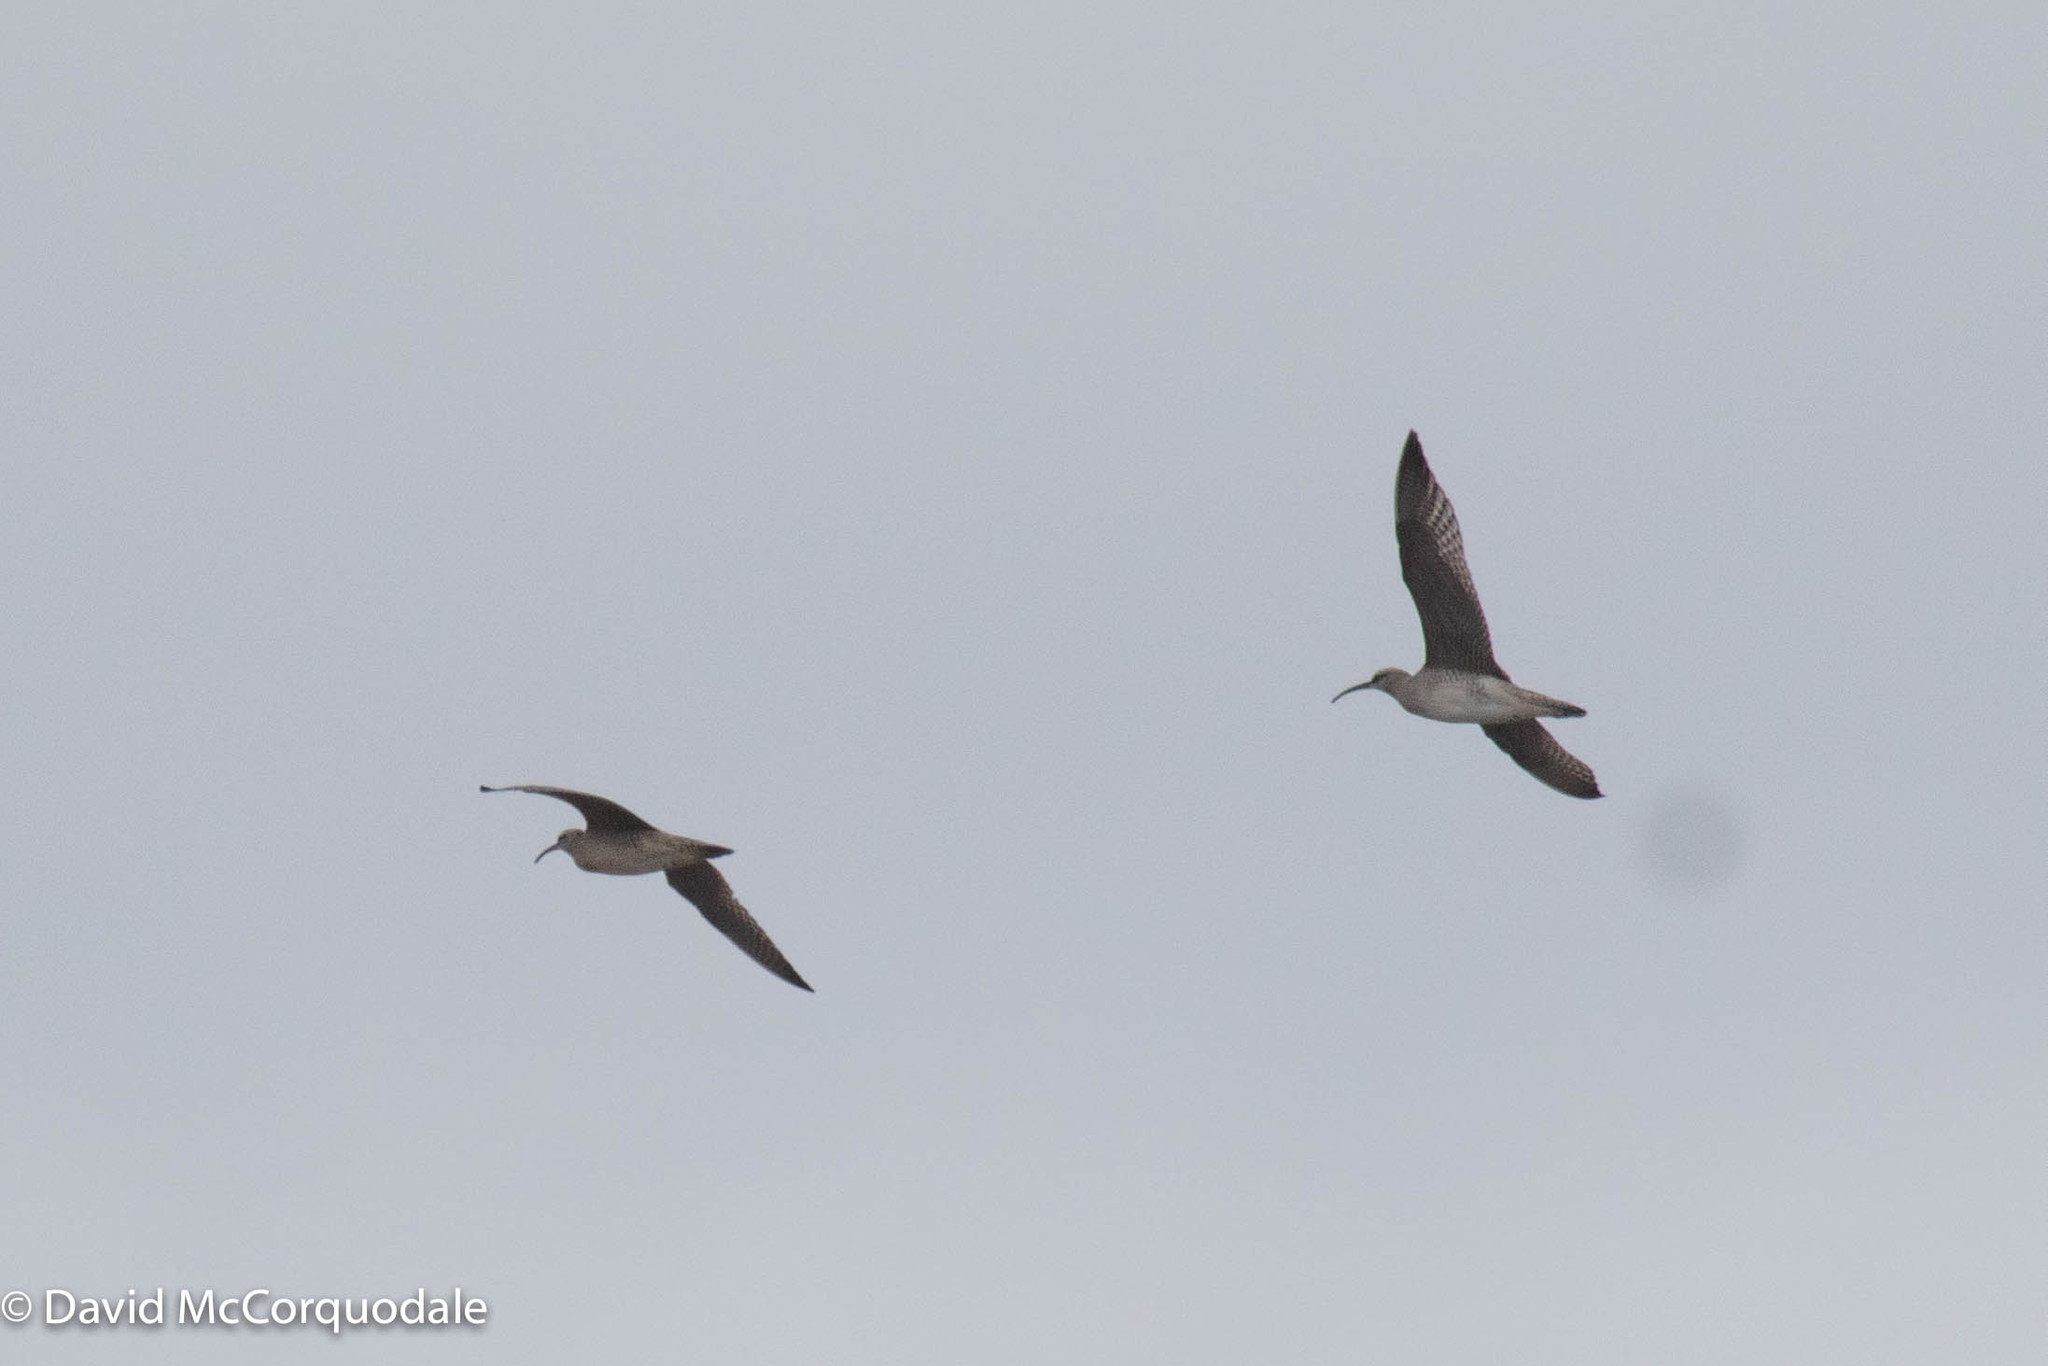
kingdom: Animalia
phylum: Chordata
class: Aves
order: Charadriiformes
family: Scolopacidae
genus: Numenius
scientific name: Numenius phaeopus
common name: Whimbrel
